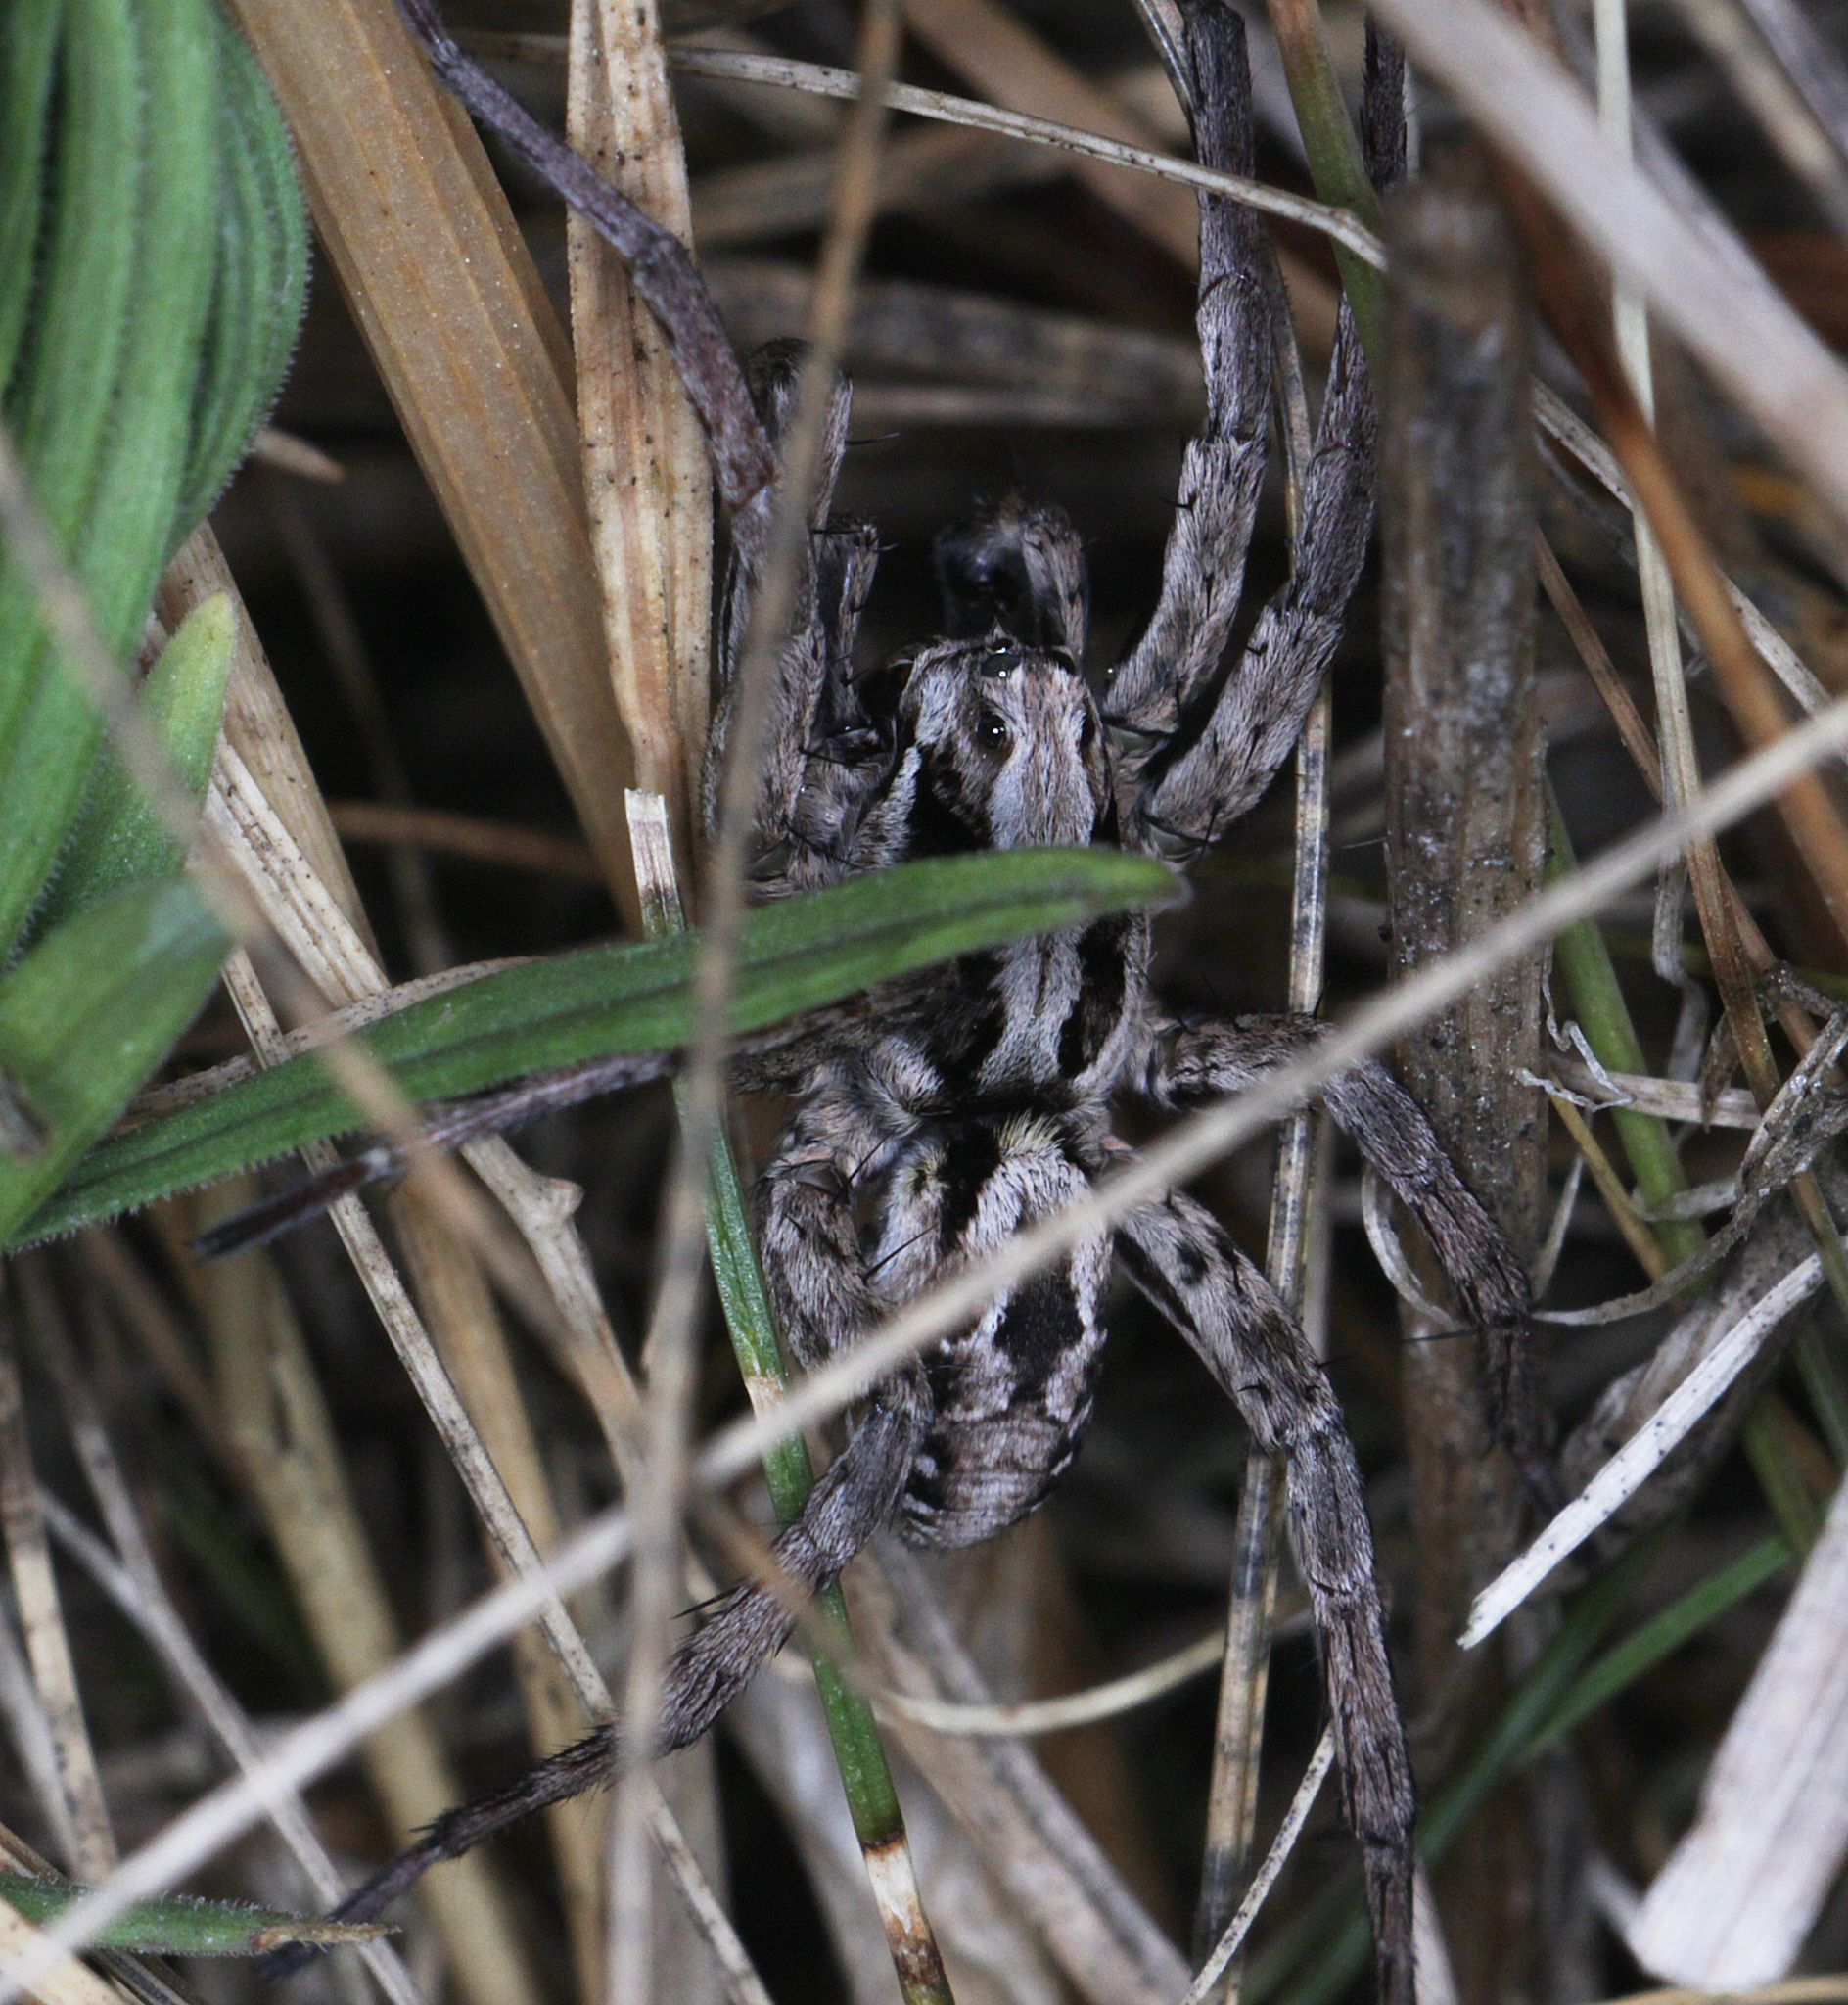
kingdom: Animalia
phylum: Arthropoda
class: Arachnida
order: Araneae
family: Lycosidae
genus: Alopecosa
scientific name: Alopecosa fabrilis
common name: Great fox-spider
